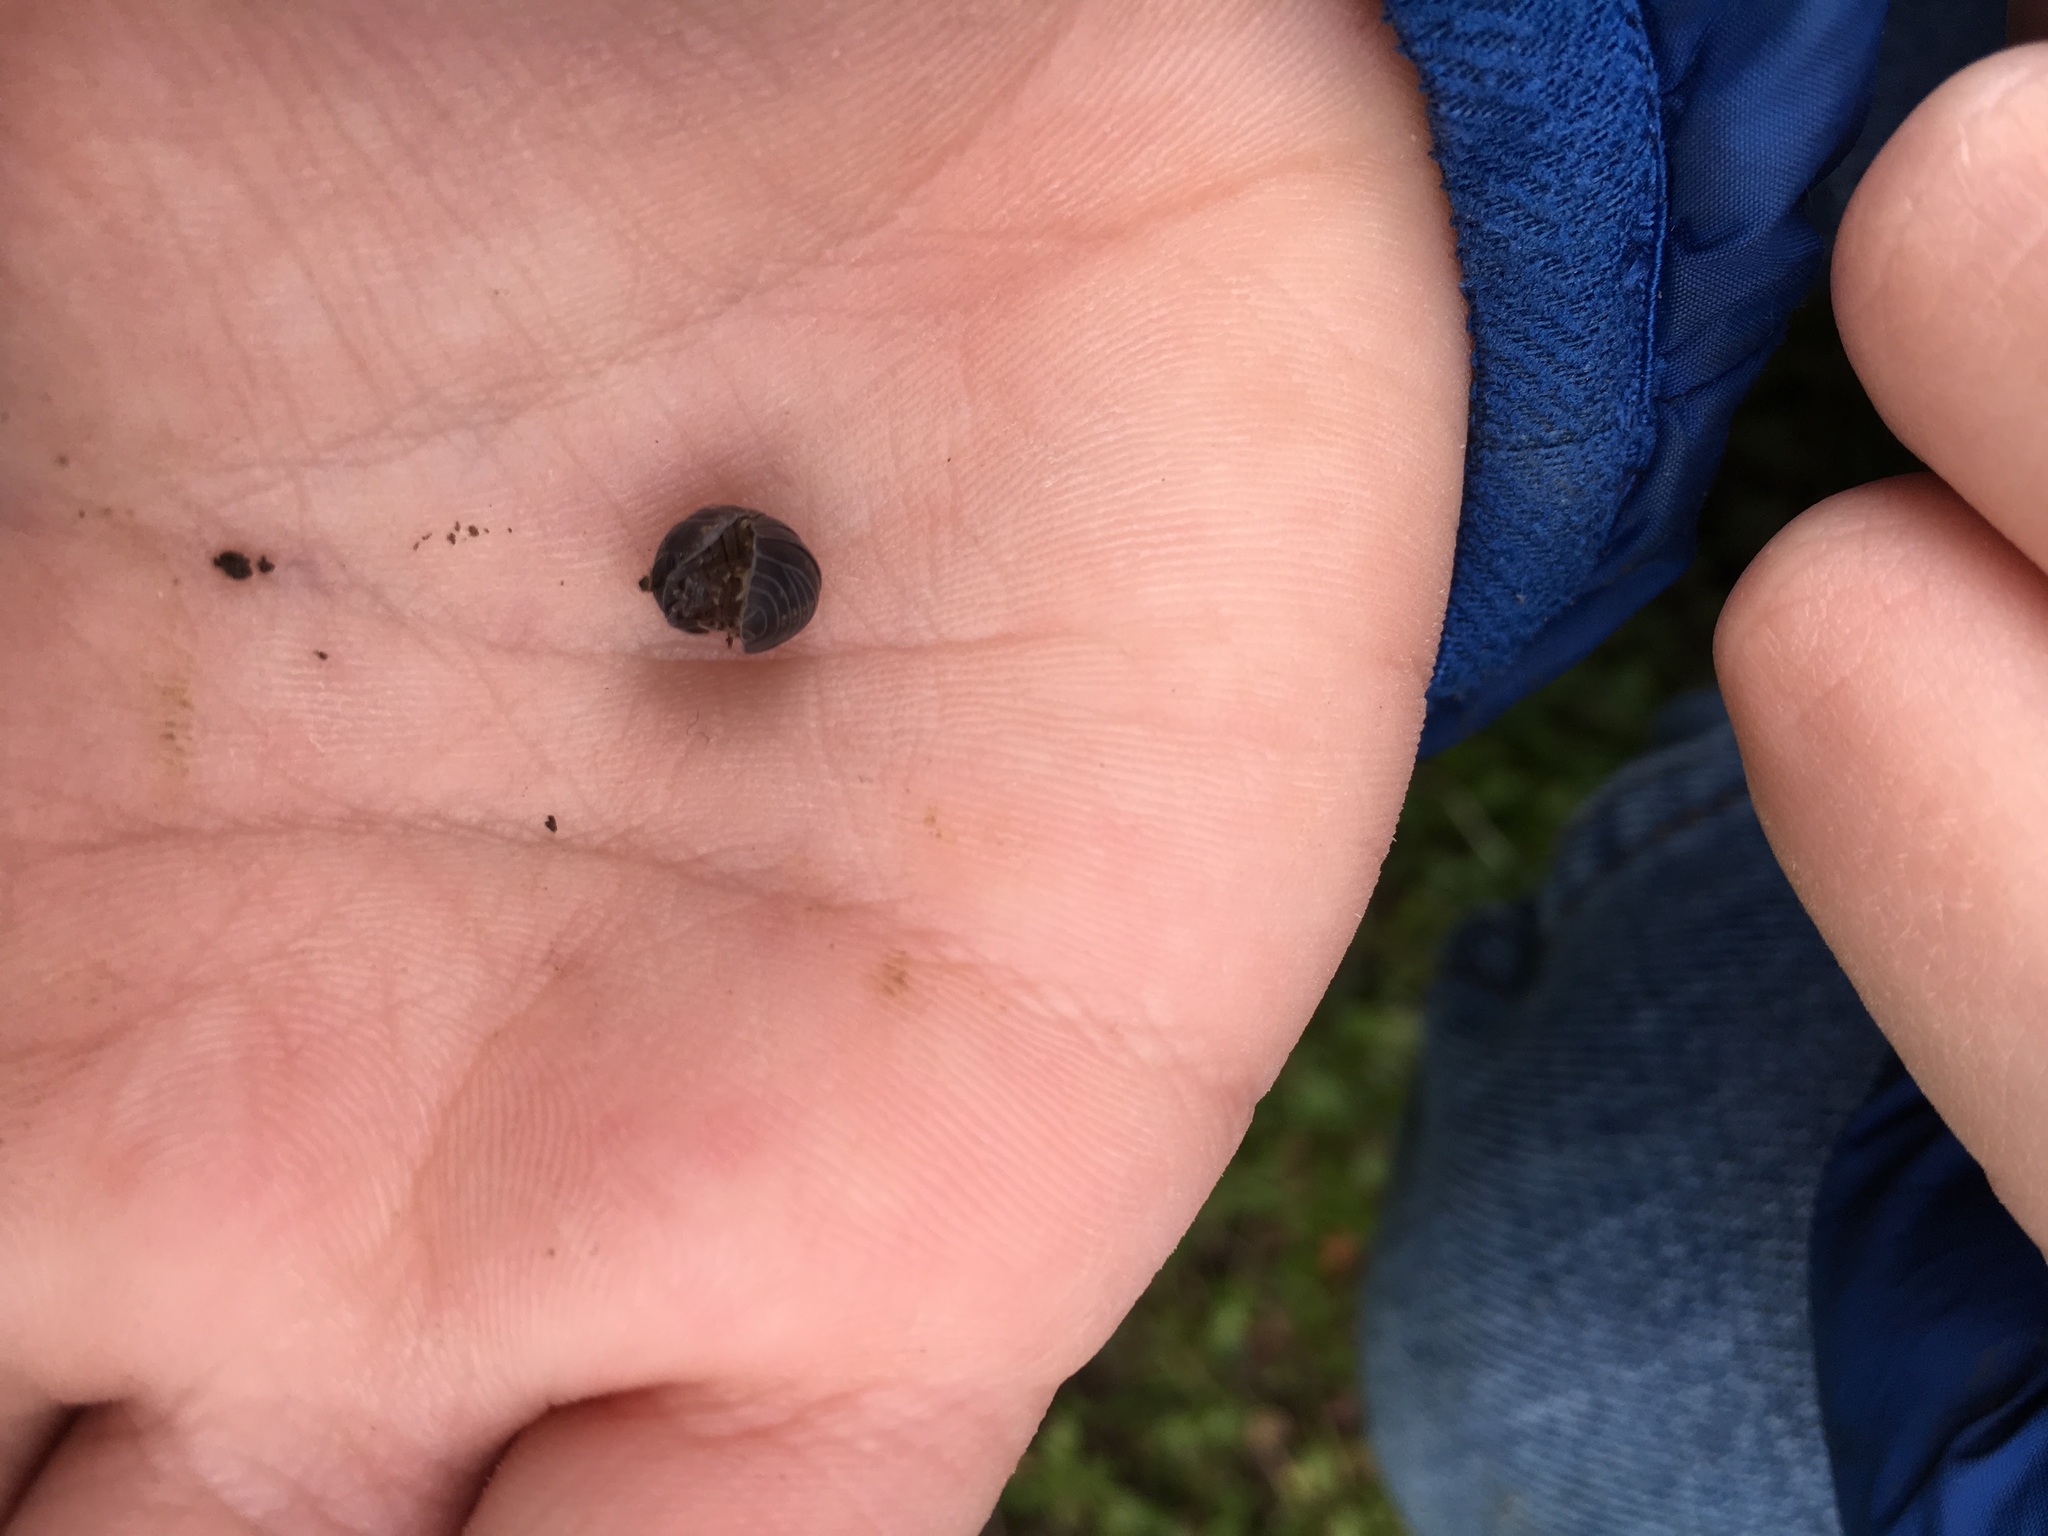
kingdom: Animalia
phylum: Arthropoda
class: Malacostraca
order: Isopoda
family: Armadillidiidae
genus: Armadillidium
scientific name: Armadillidium vulgare
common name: Common pill woodlouse
